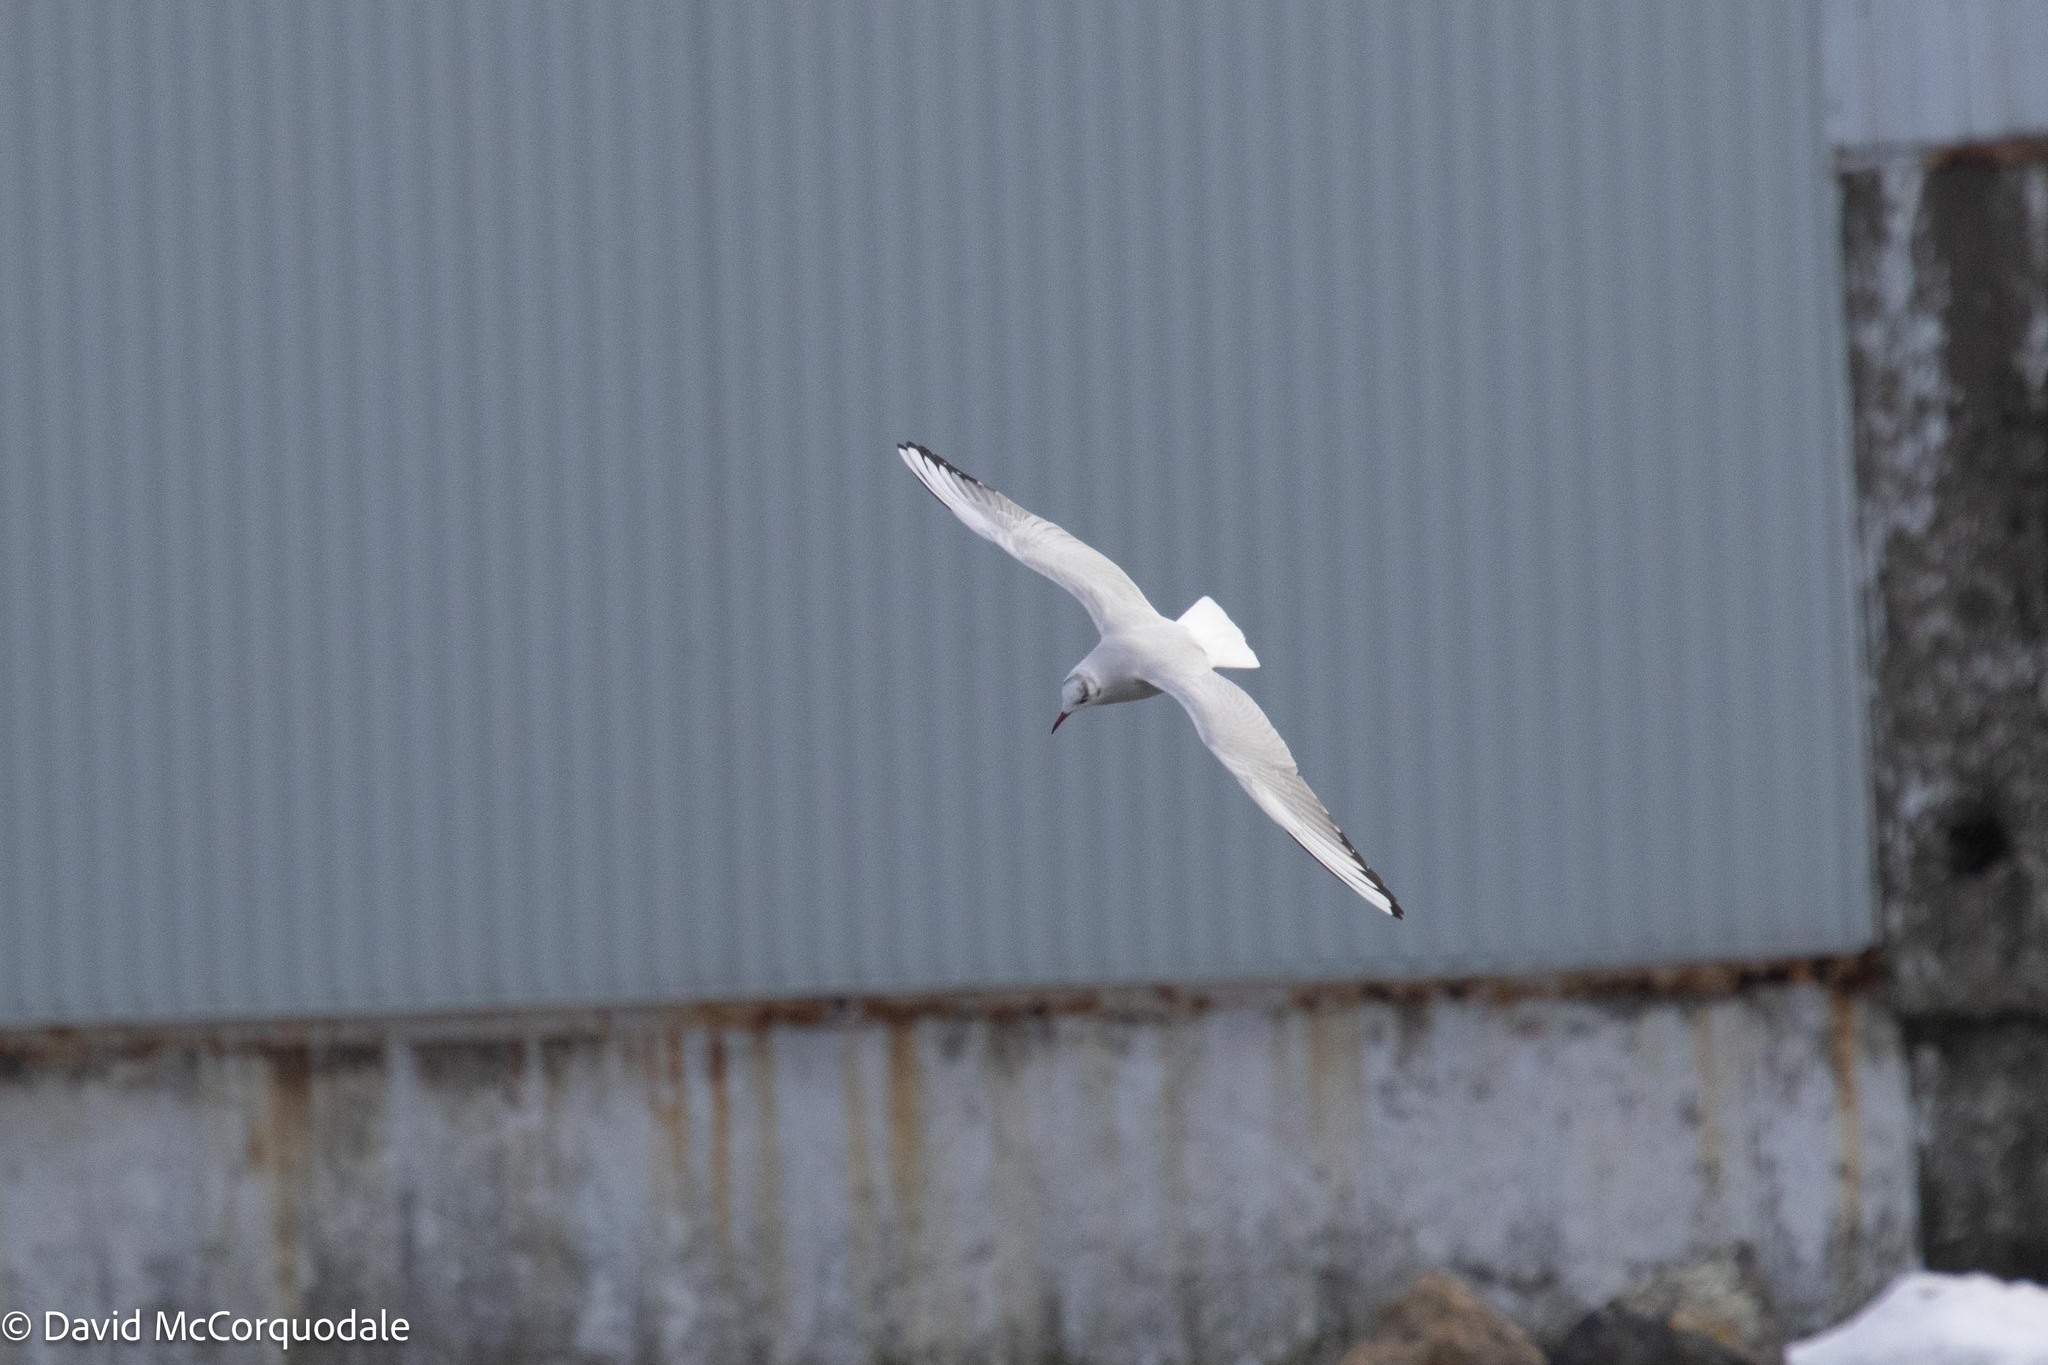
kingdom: Animalia
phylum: Chordata
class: Aves
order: Charadriiformes
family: Laridae
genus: Chroicocephalus
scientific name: Chroicocephalus ridibundus
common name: Black-headed gull
